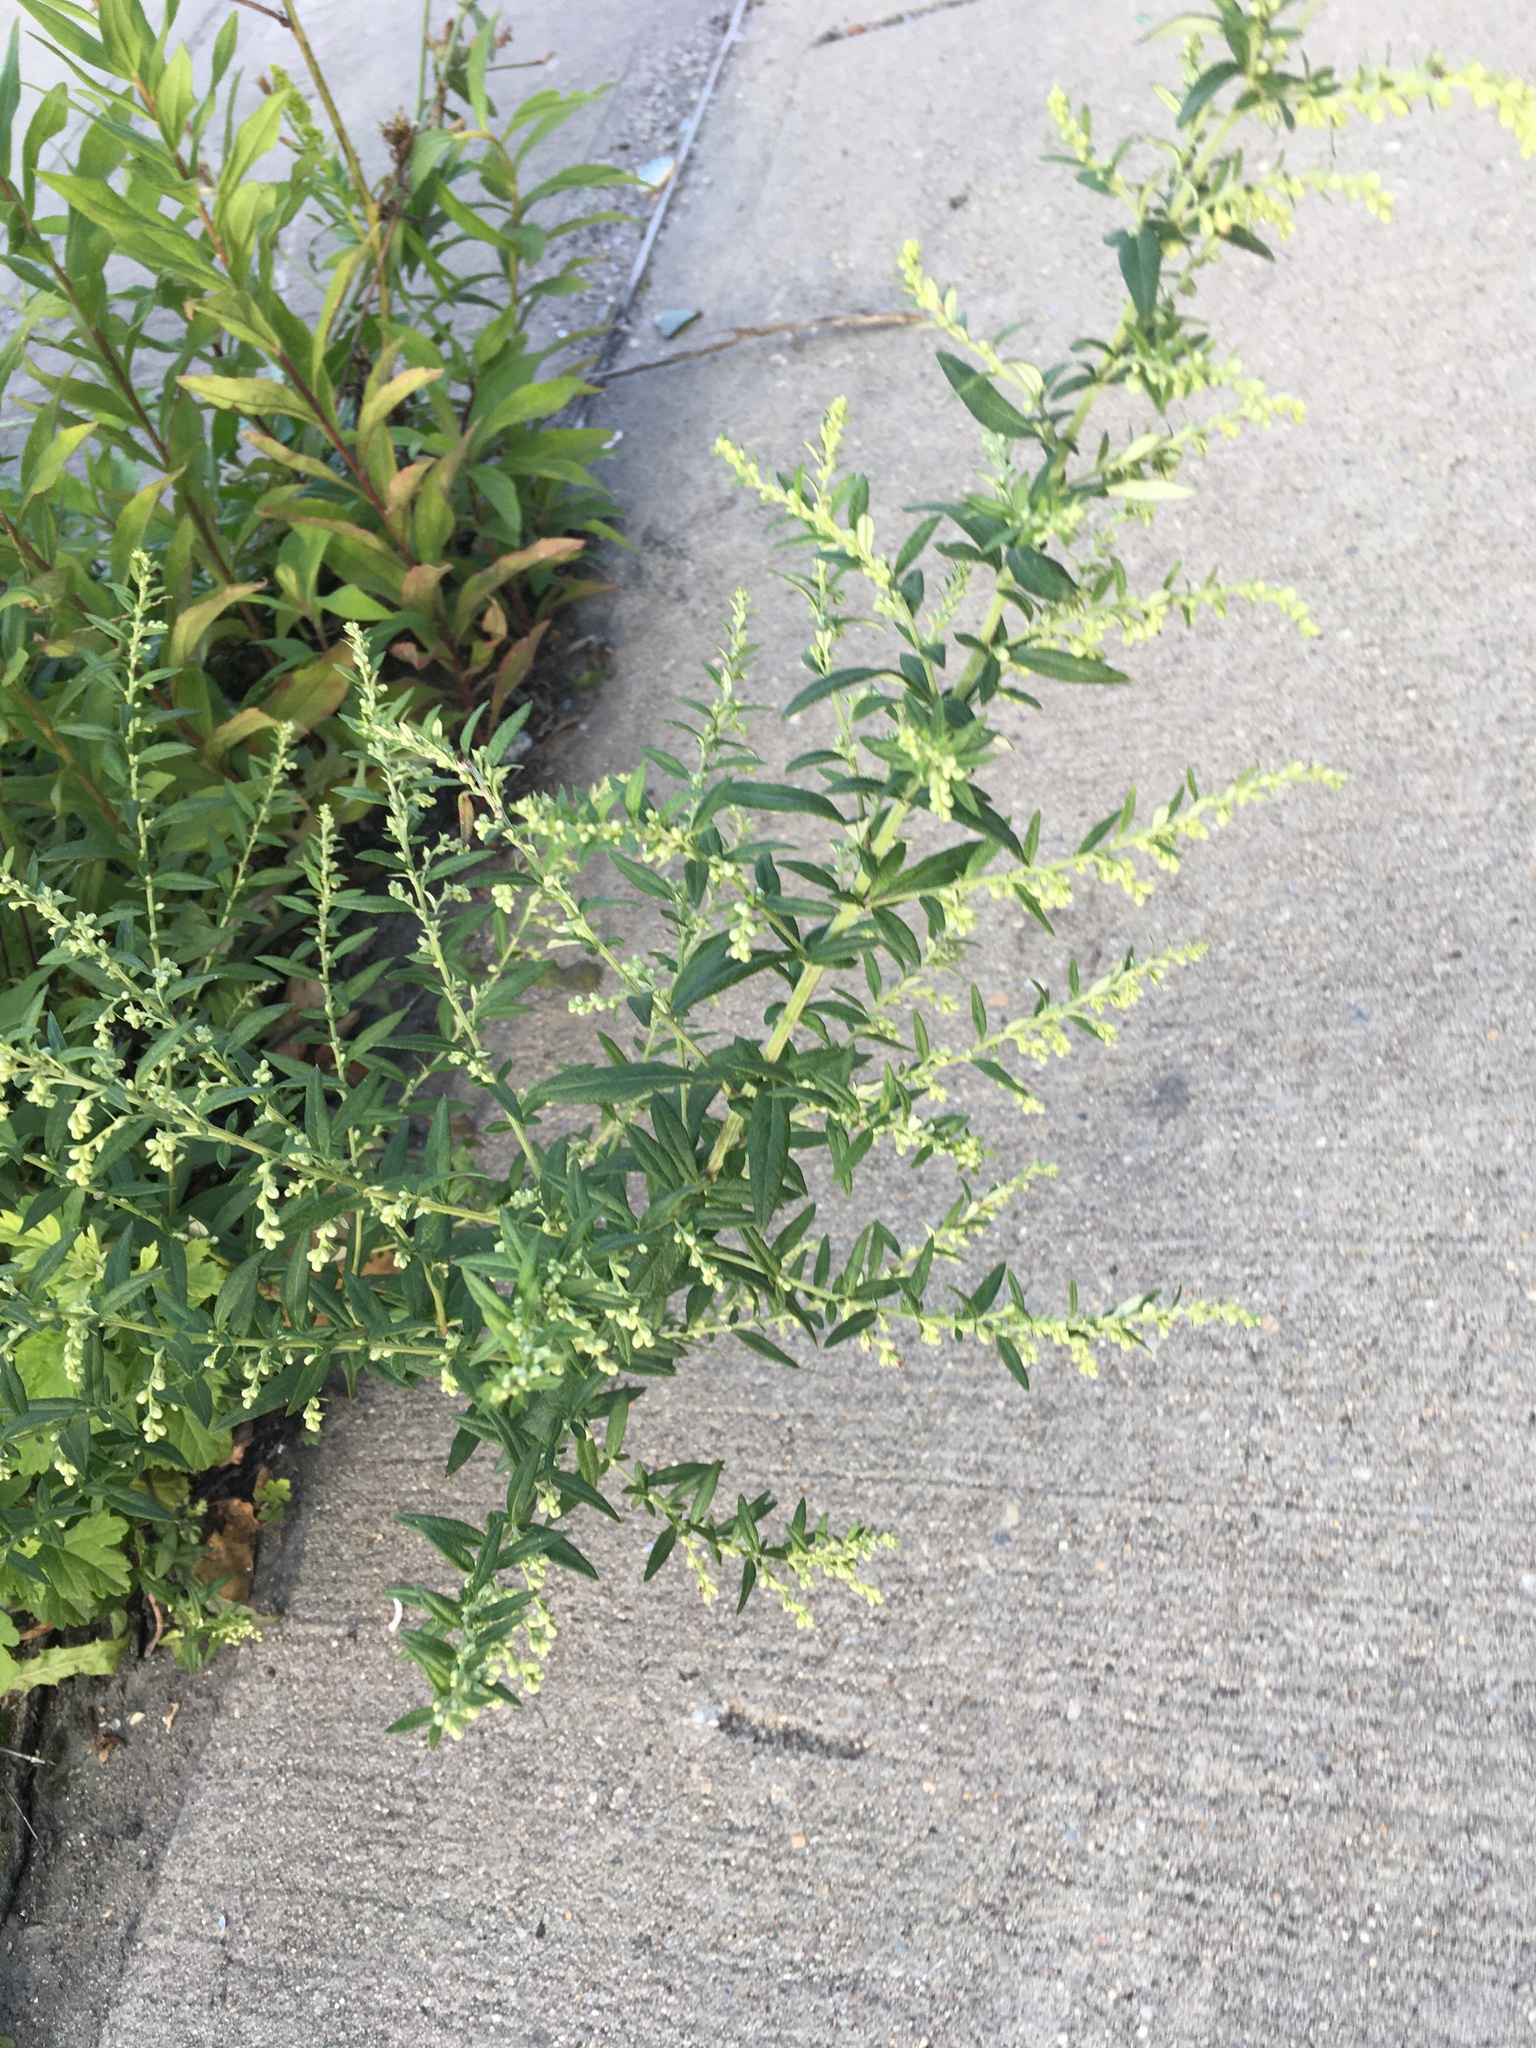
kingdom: Plantae
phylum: Tracheophyta
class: Magnoliopsida
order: Asterales
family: Asteraceae
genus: Artemisia
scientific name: Artemisia vulgaris
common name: Mugwort
